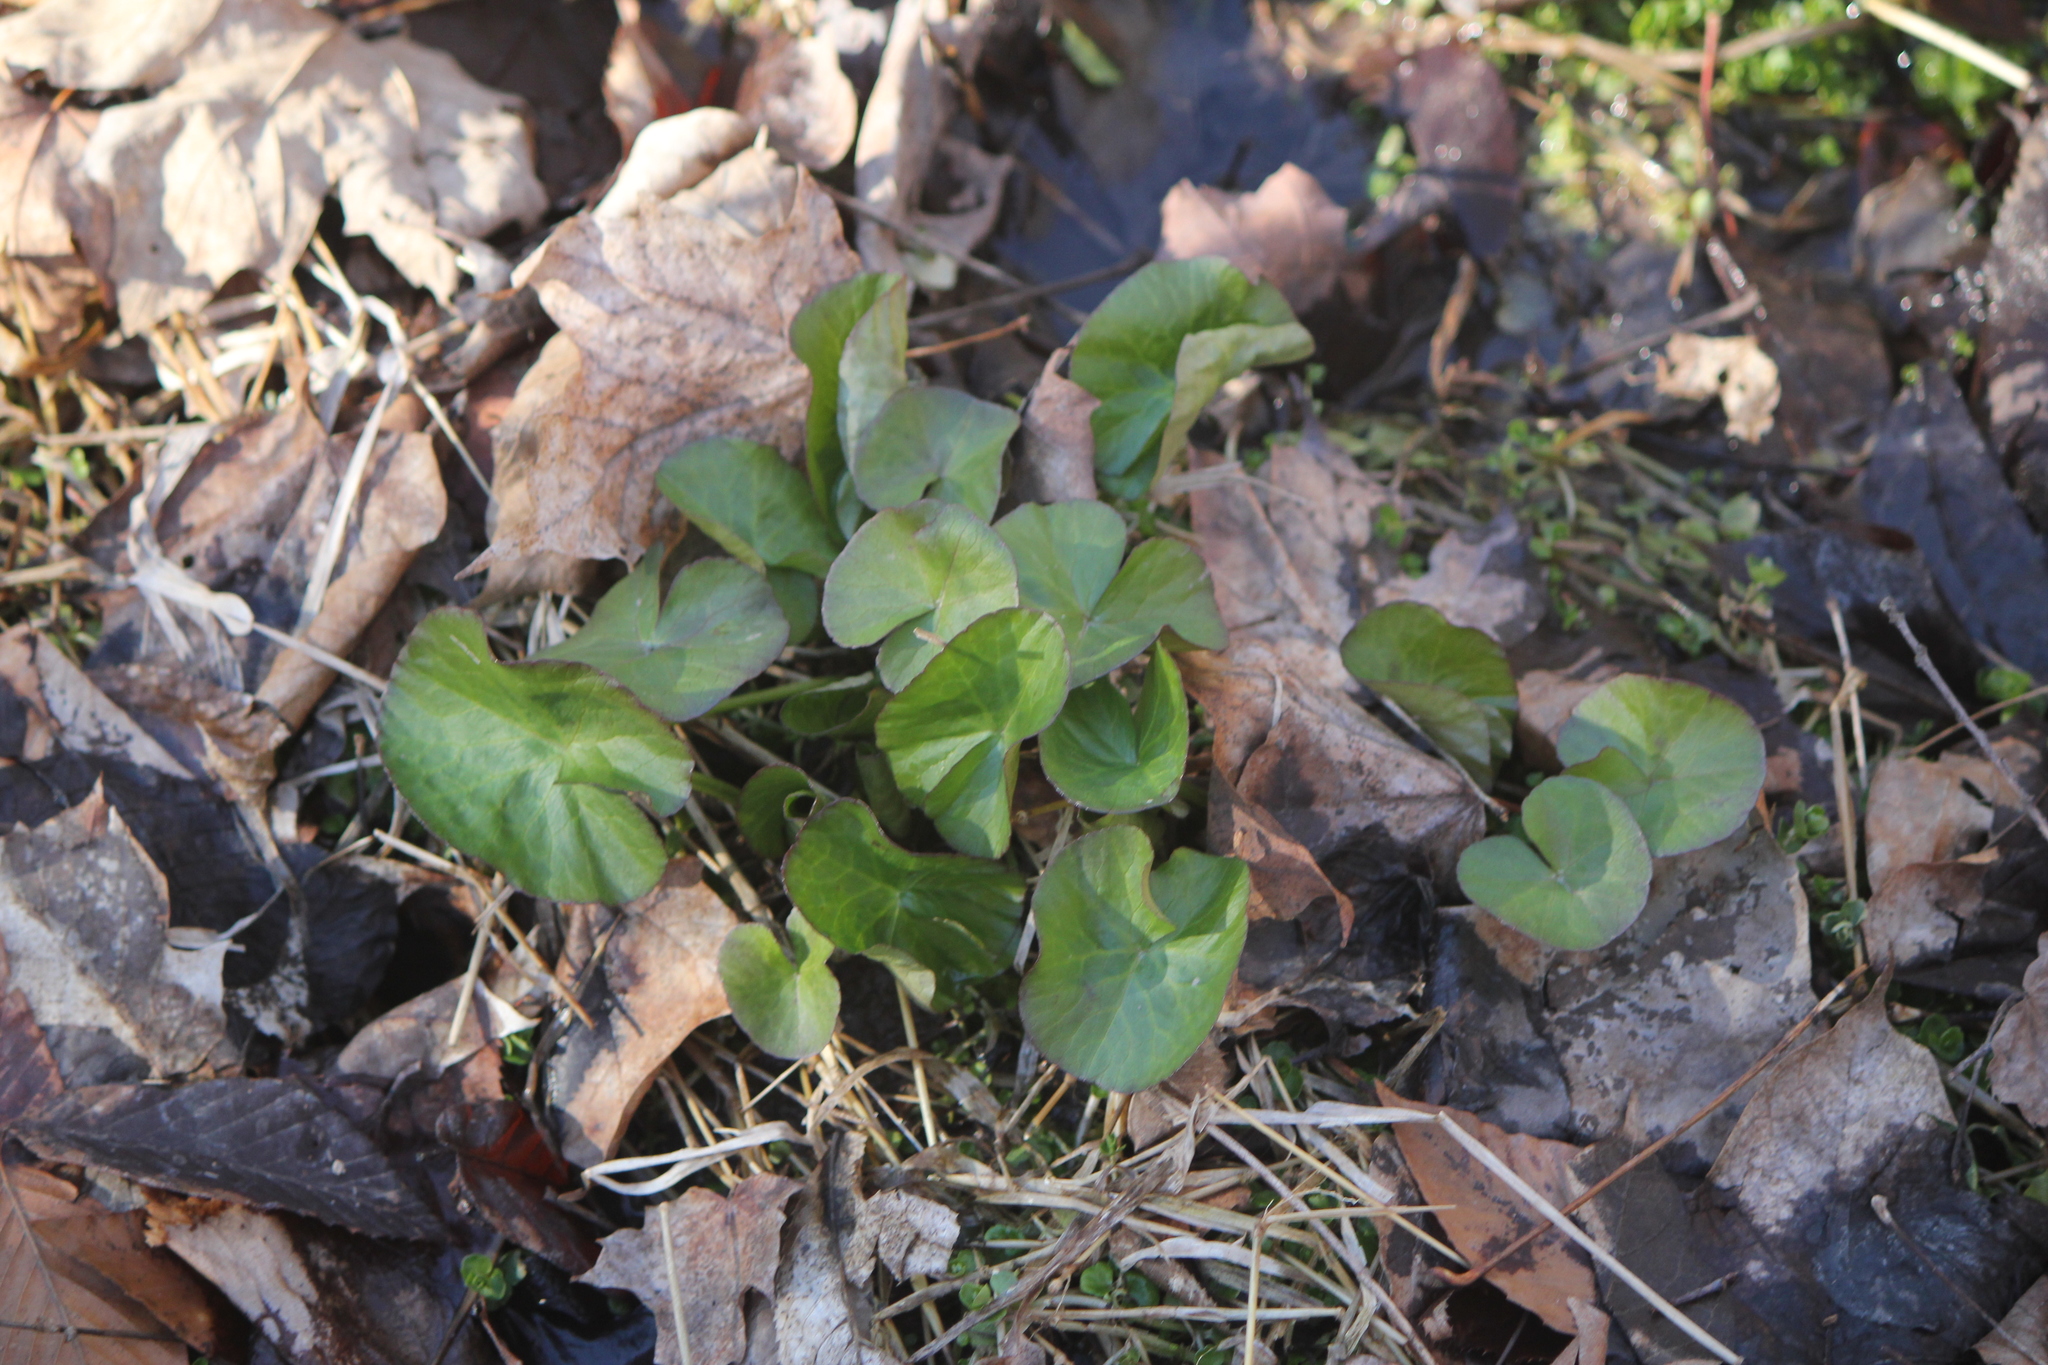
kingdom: Plantae
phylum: Tracheophyta
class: Magnoliopsida
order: Ranunculales
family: Ranunculaceae
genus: Caltha
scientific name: Caltha palustris
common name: Marsh marigold
